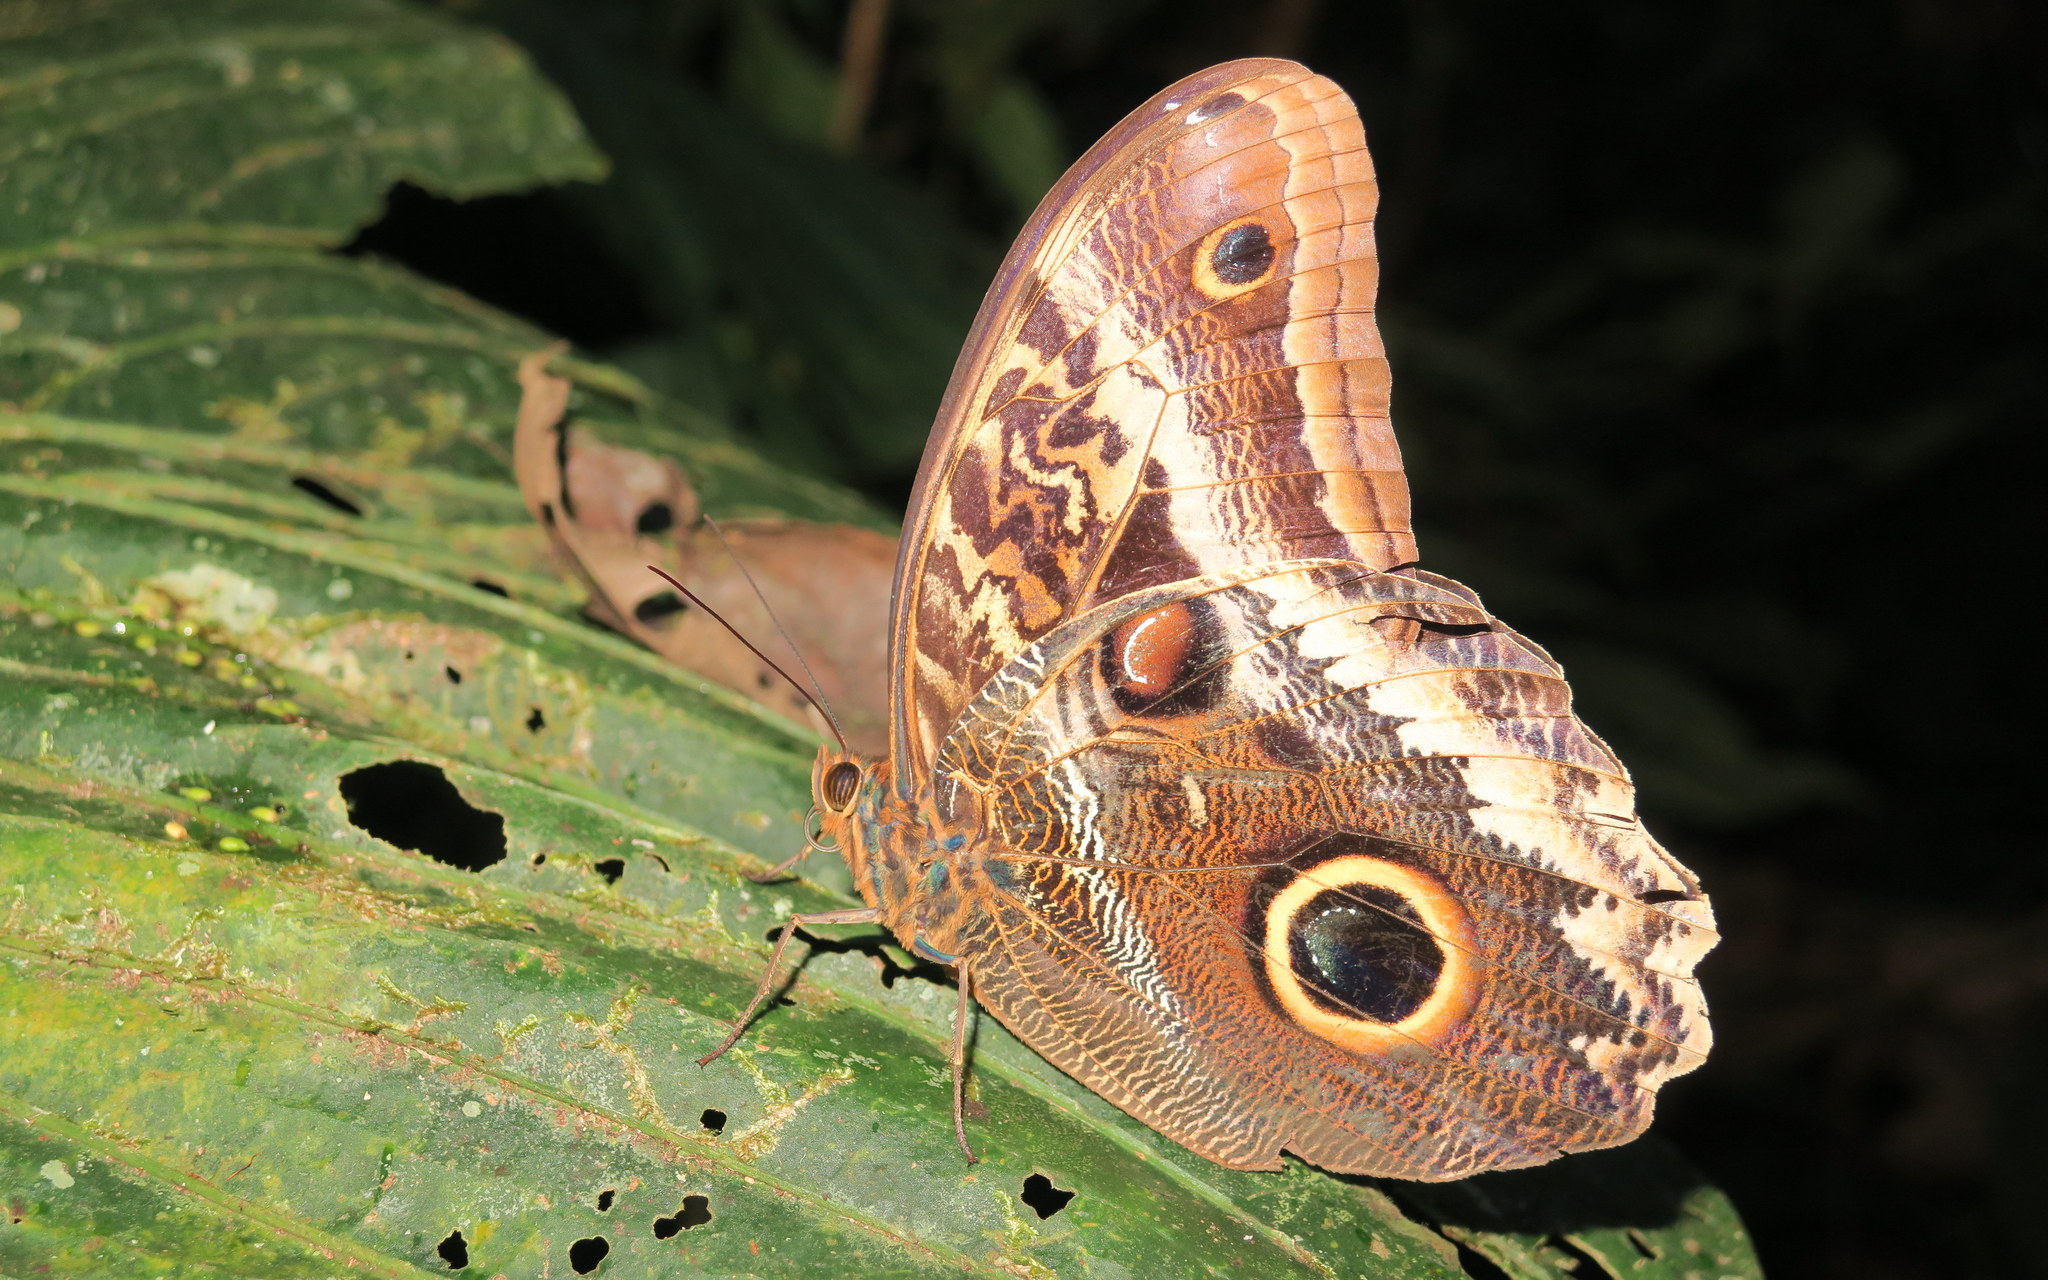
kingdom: Animalia
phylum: Arthropoda
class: Insecta
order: Lepidoptera
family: Nymphalidae
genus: Caligo
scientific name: Caligo atreus
